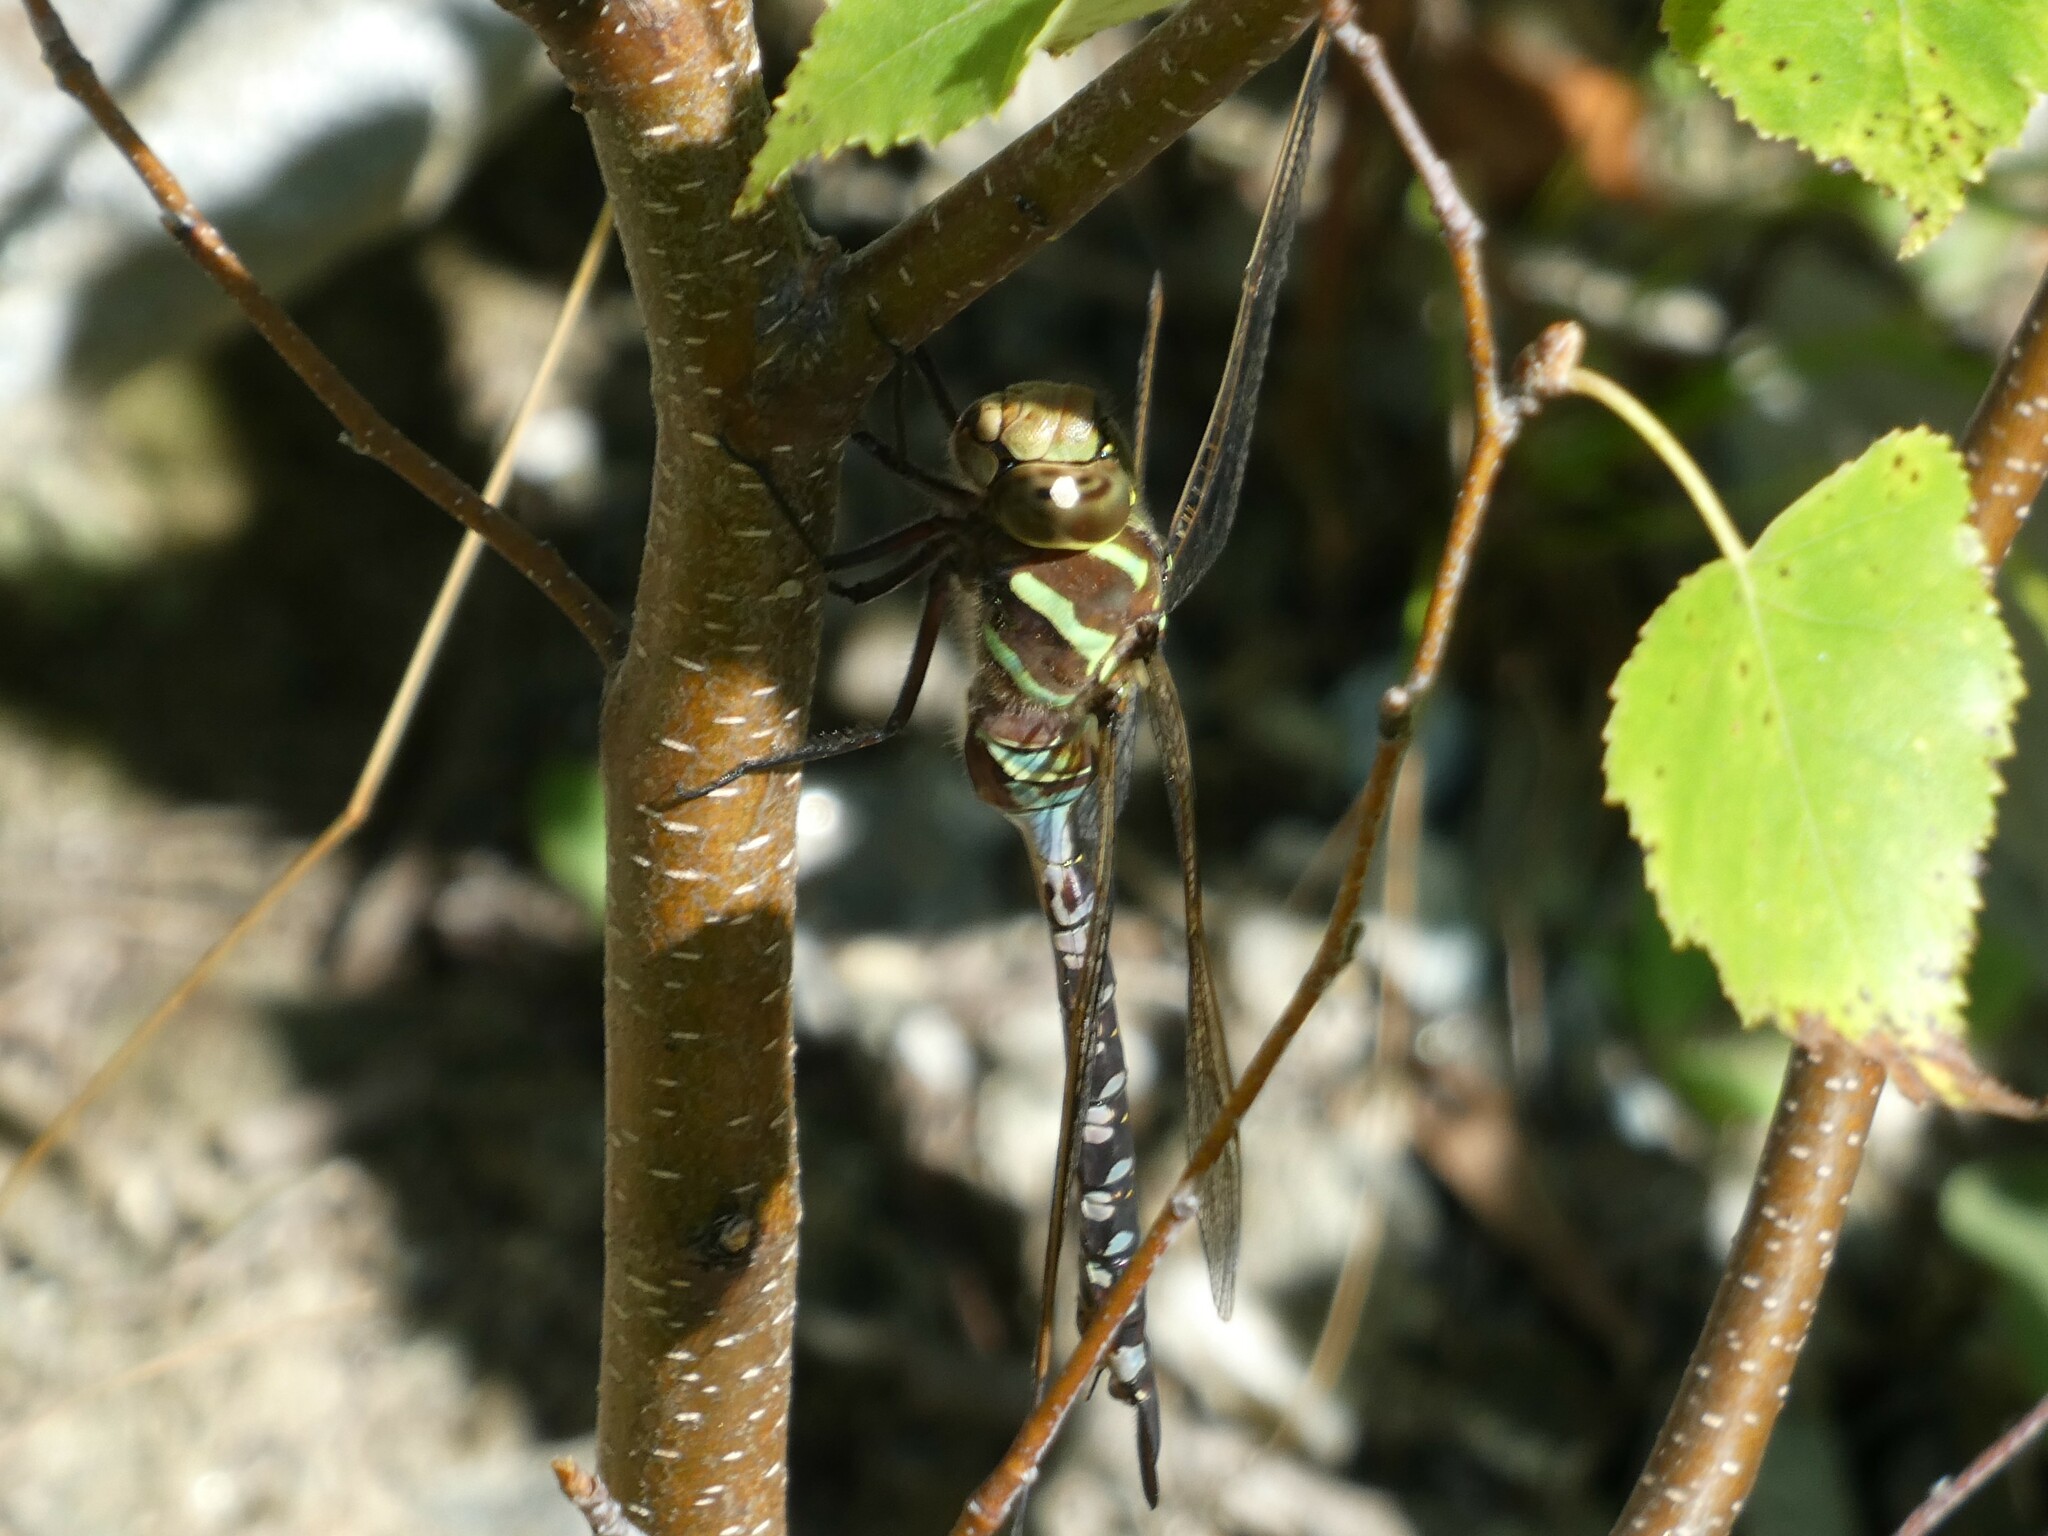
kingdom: Animalia
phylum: Arthropoda
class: Insecta
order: Odonata
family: Aeshnidae
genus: Aeshna
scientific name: Aeshna constricta
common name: Lance-tipped darner
